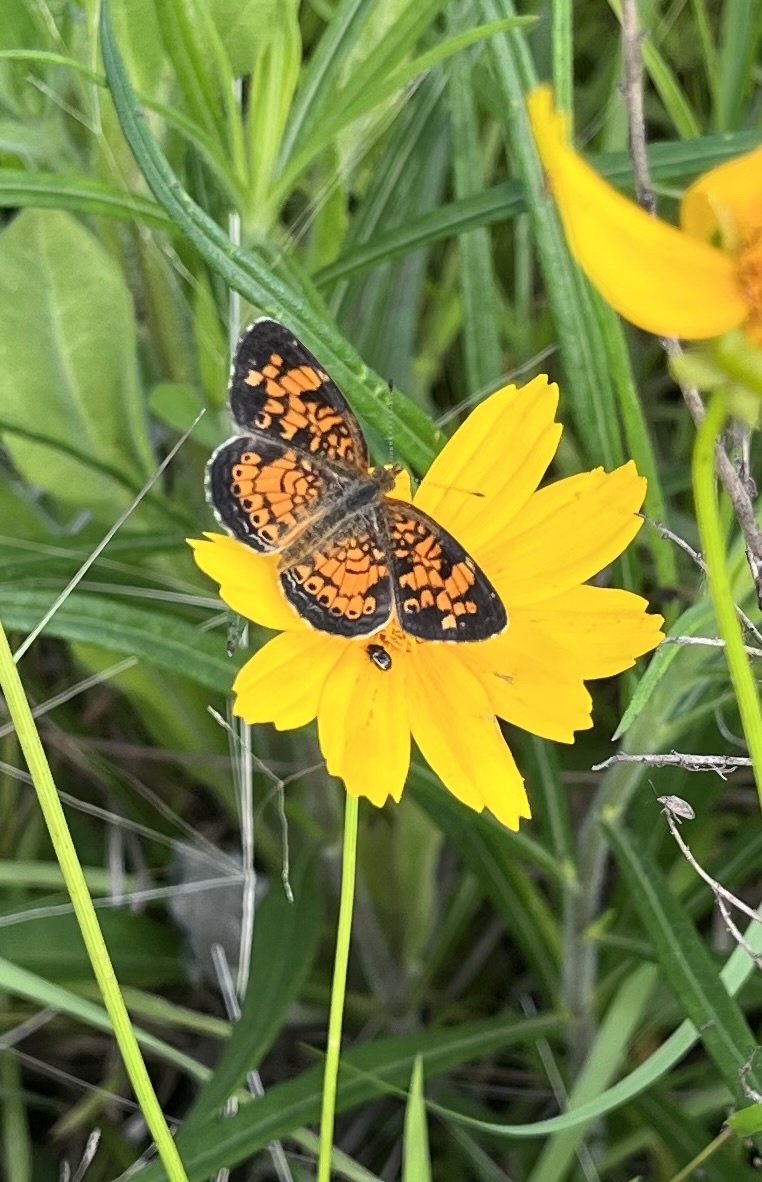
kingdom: Animalia
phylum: Arthropoda
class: Insecta
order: Lepidoptera
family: Nymphalidae
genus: Phyciodes
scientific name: Phyciodes tharos
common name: Pearl crescent
